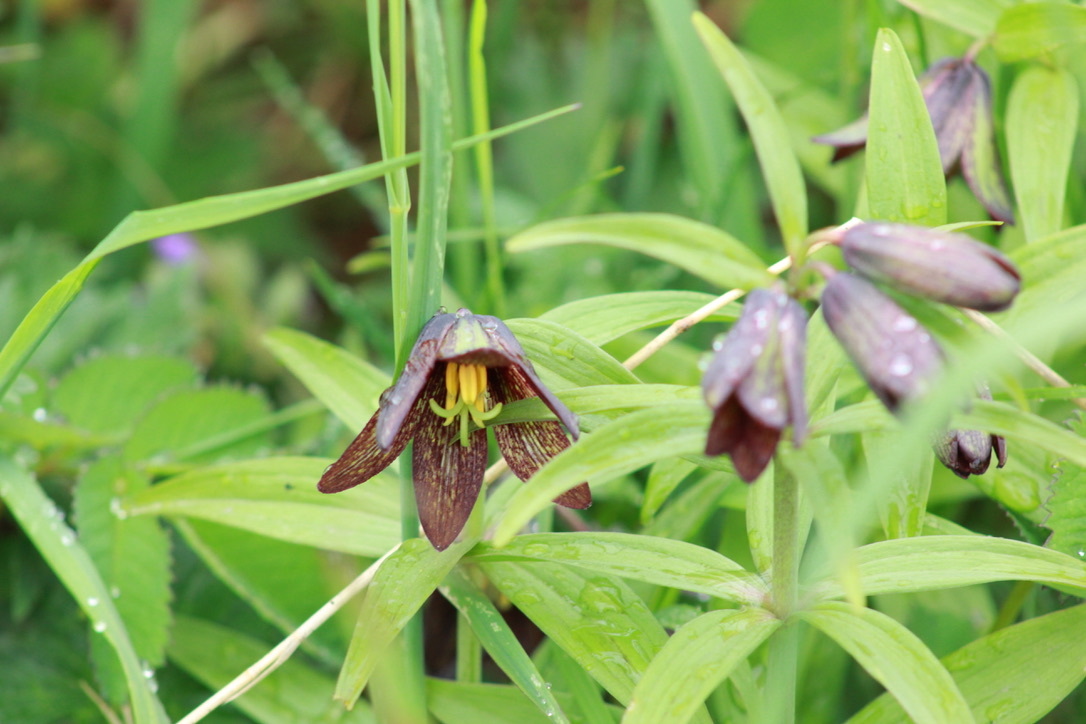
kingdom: Plantae
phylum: Tracheophyta
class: Liliopsida
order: Liliales
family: Liliaceae
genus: Fritillaria
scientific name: Fritillaria camschatcensis
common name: Kamchatka fritillary
